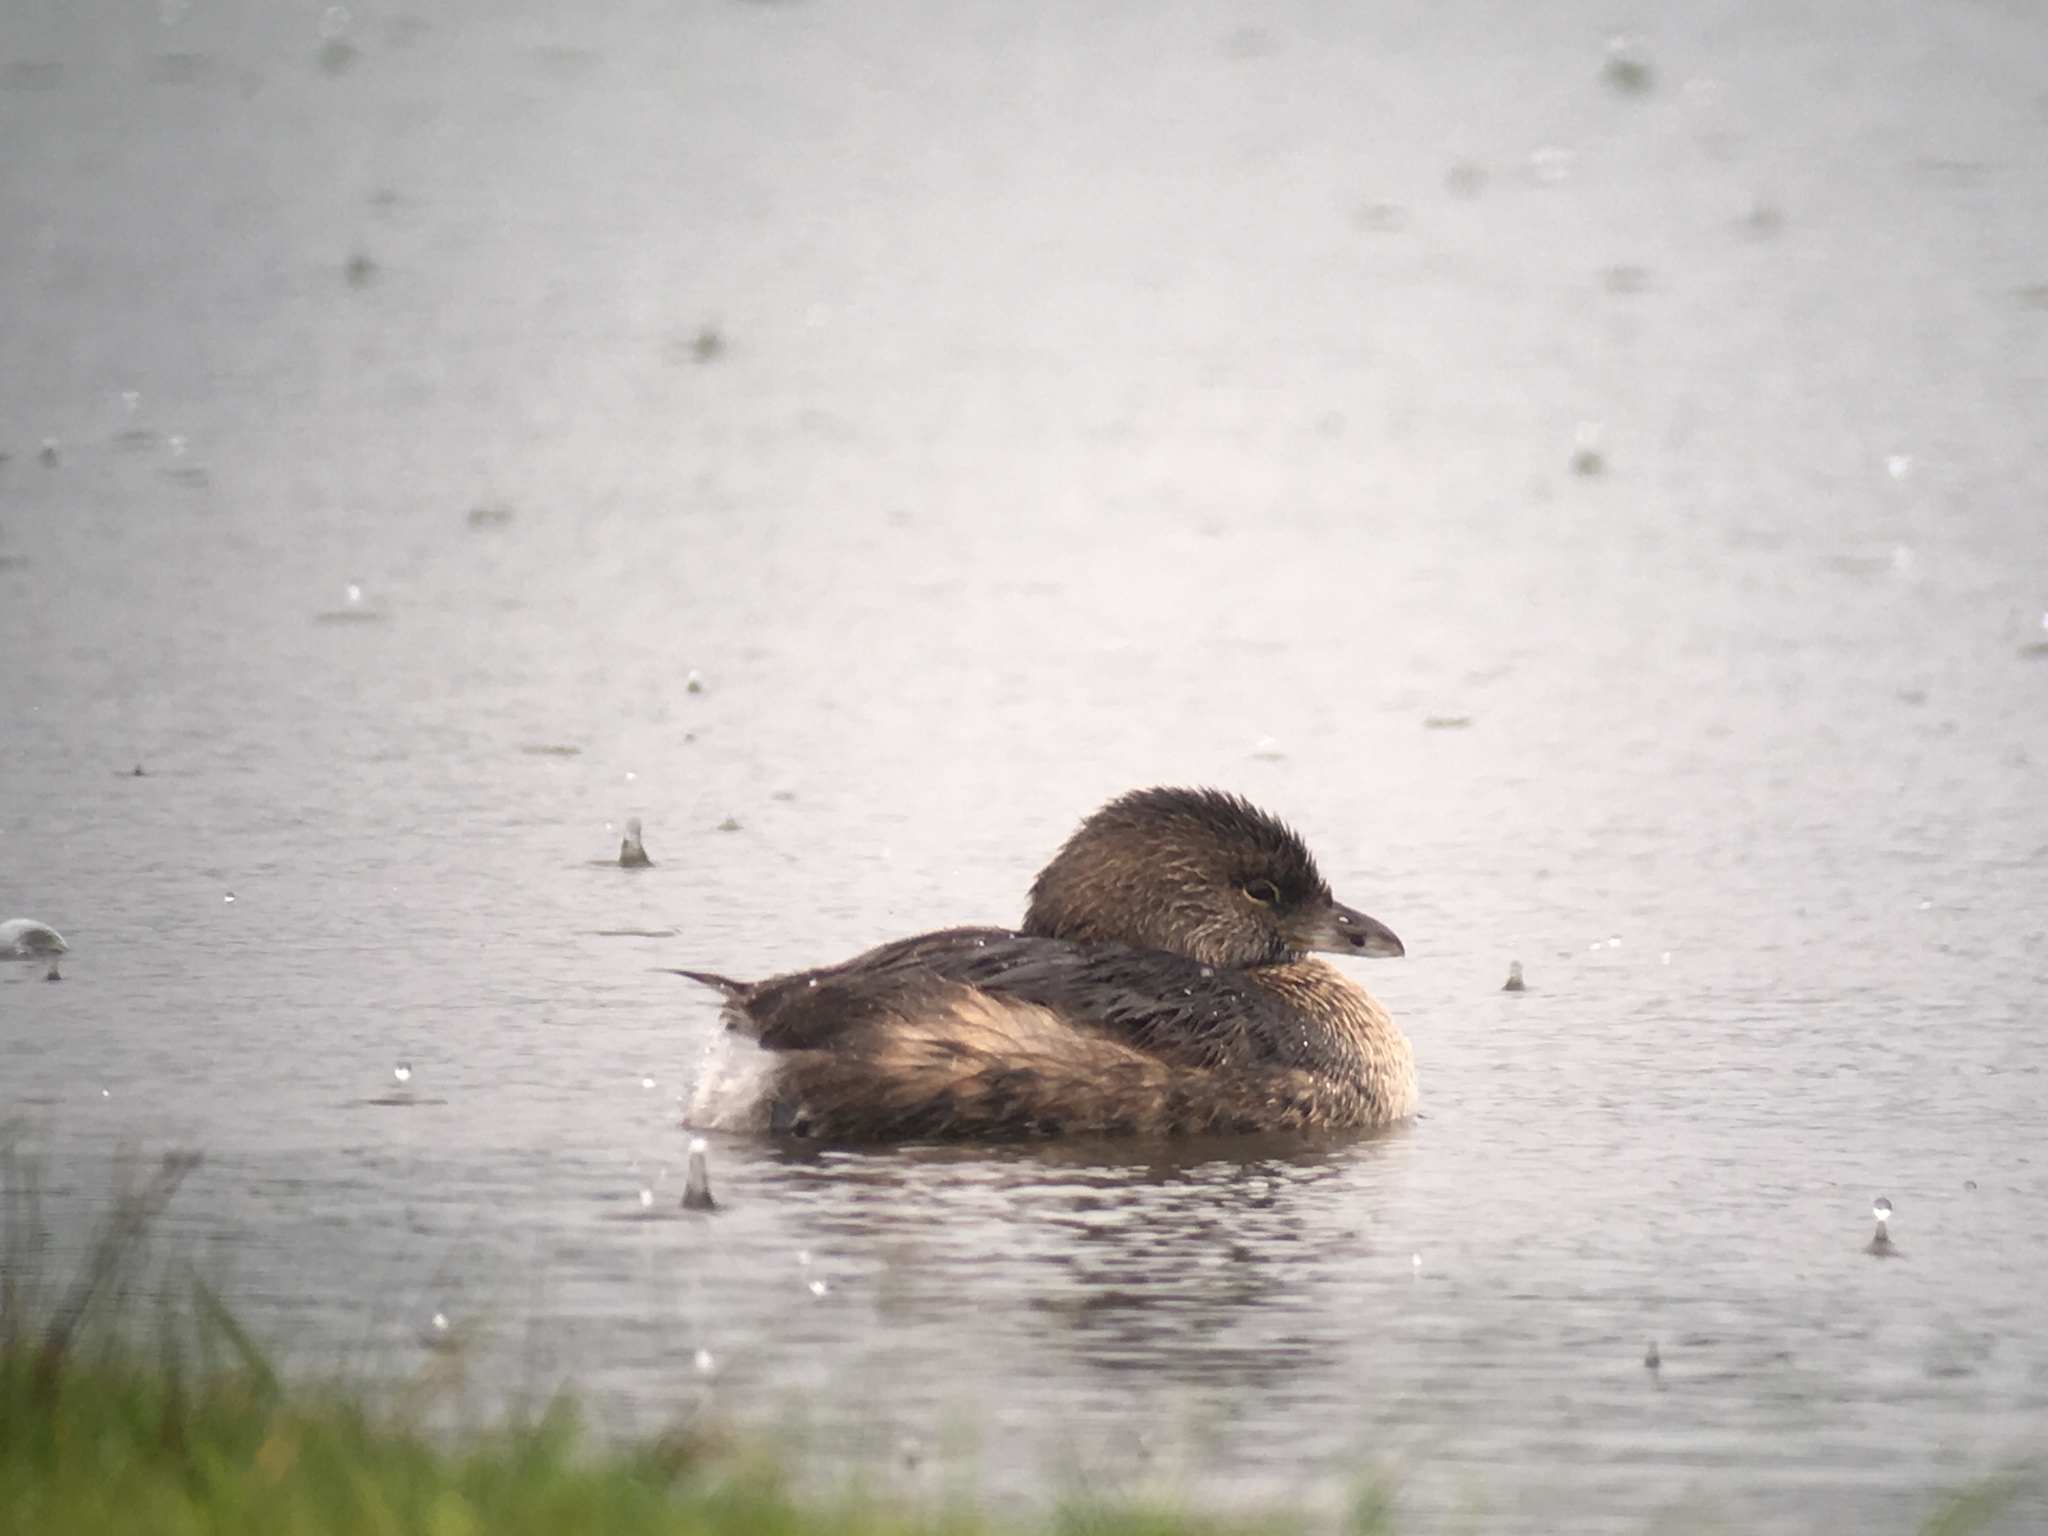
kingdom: Animalia
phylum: Chordata
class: Aves
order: Podicipediformes
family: Podicipedidae
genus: Podilymbus
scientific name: Podilymbus podiceps
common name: Pied-billed grebe
